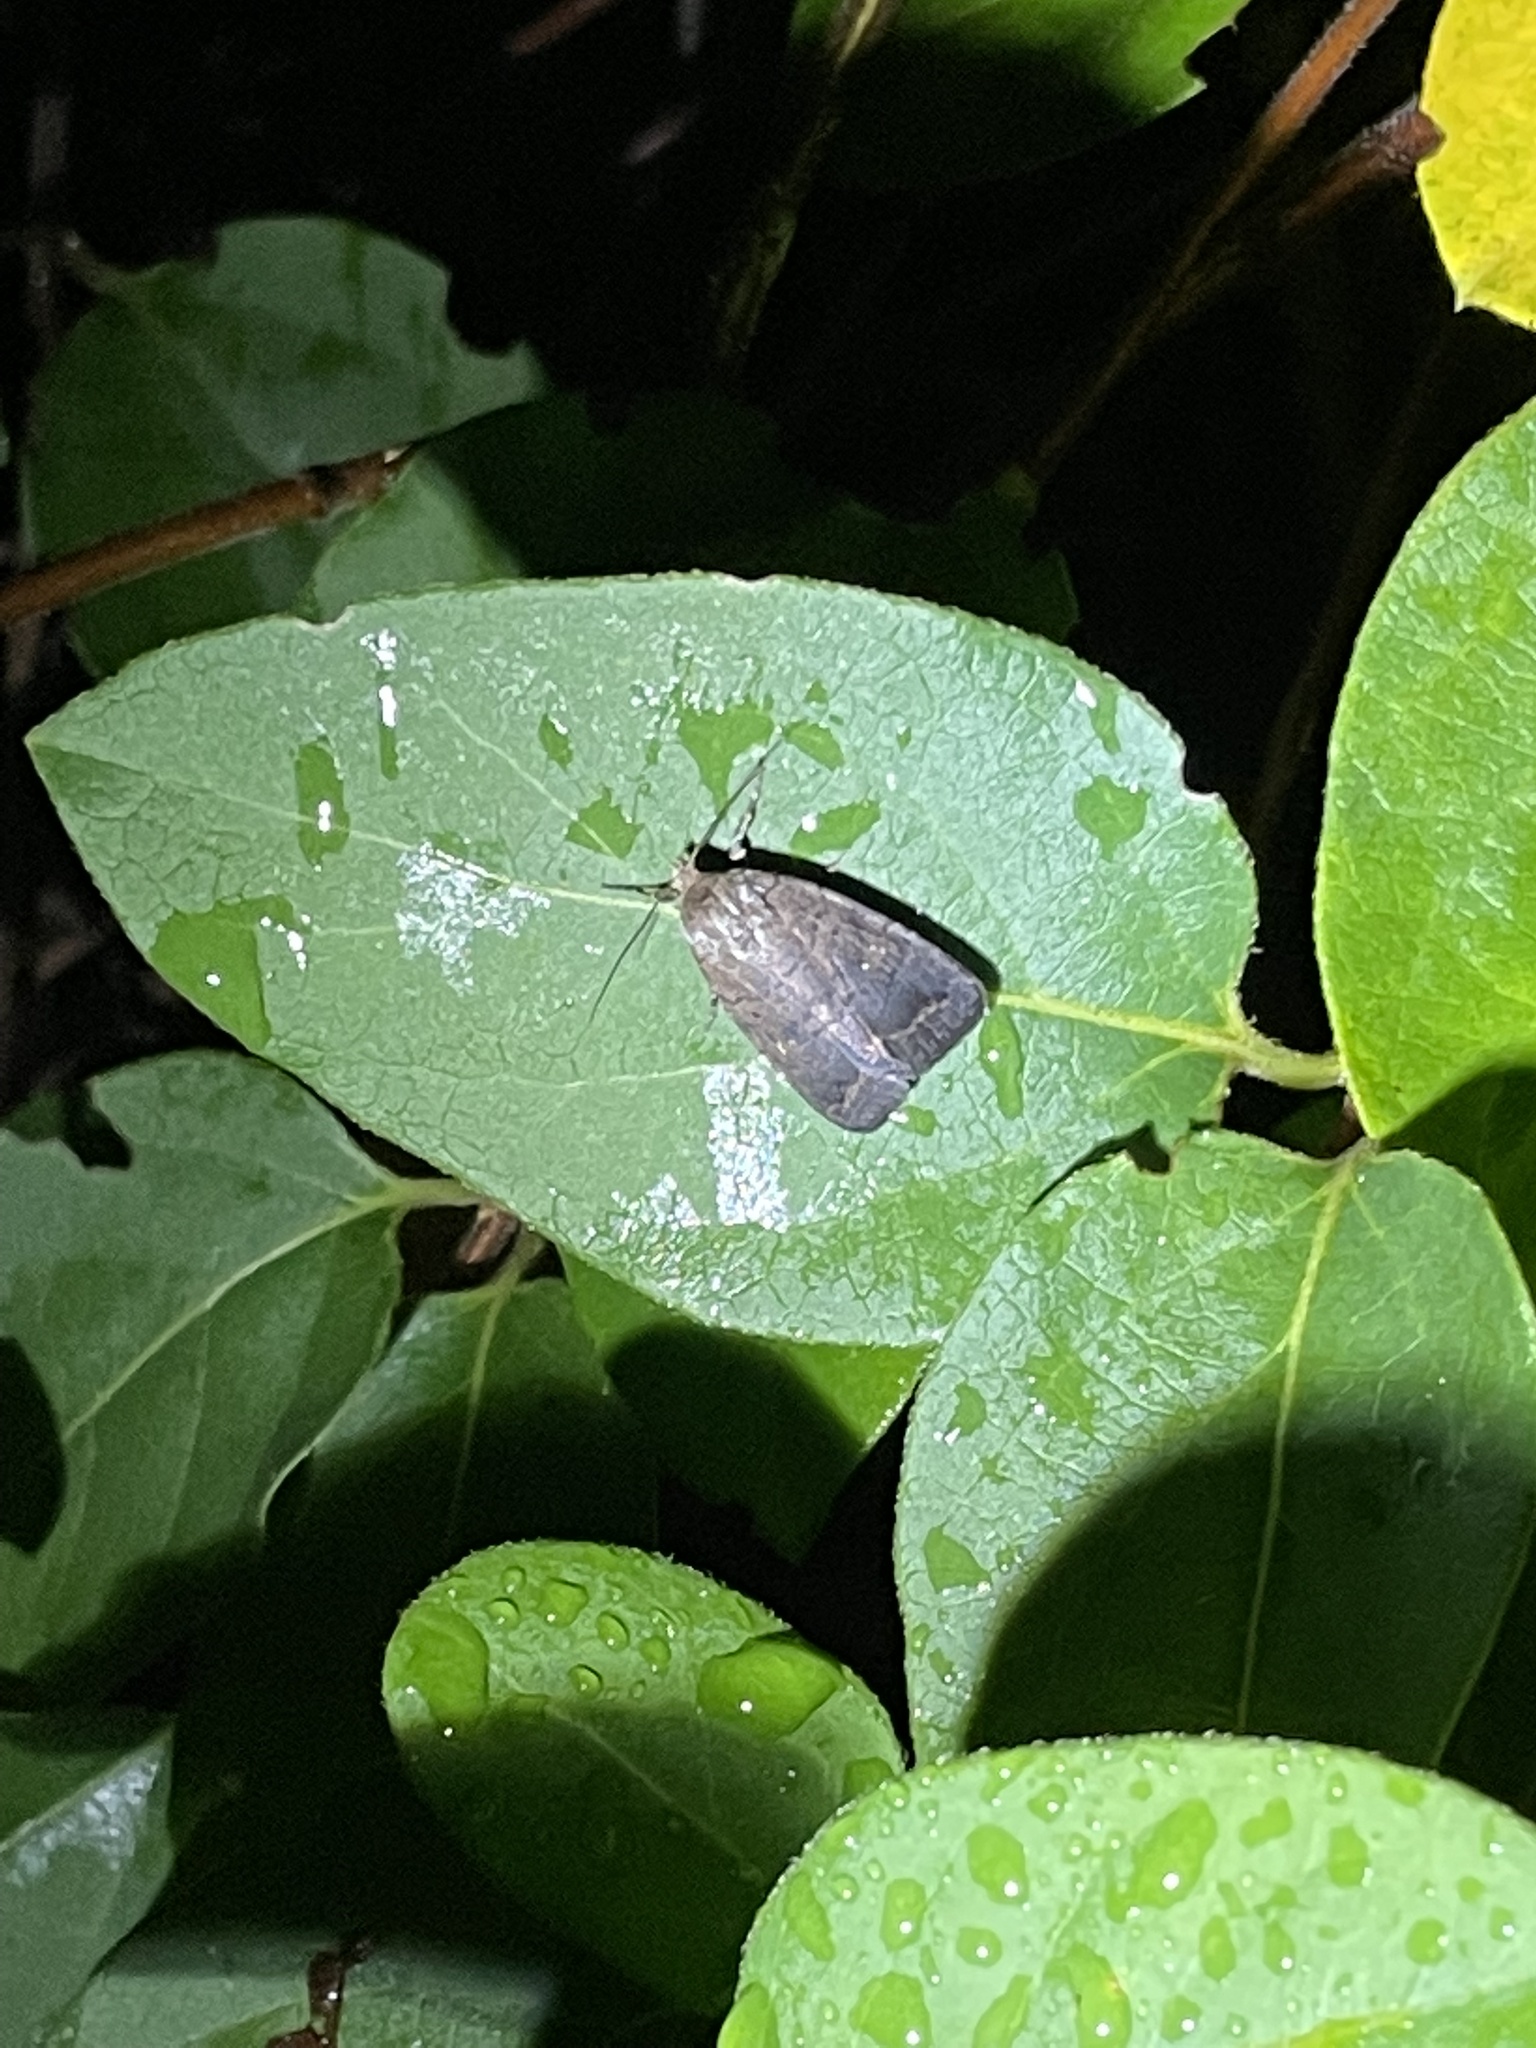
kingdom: Animalia
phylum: Arthropoda
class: Insecta
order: Lepidoptera
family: Noctuidae
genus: Athetis
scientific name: Athetis tarda
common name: Slowpoke moth
